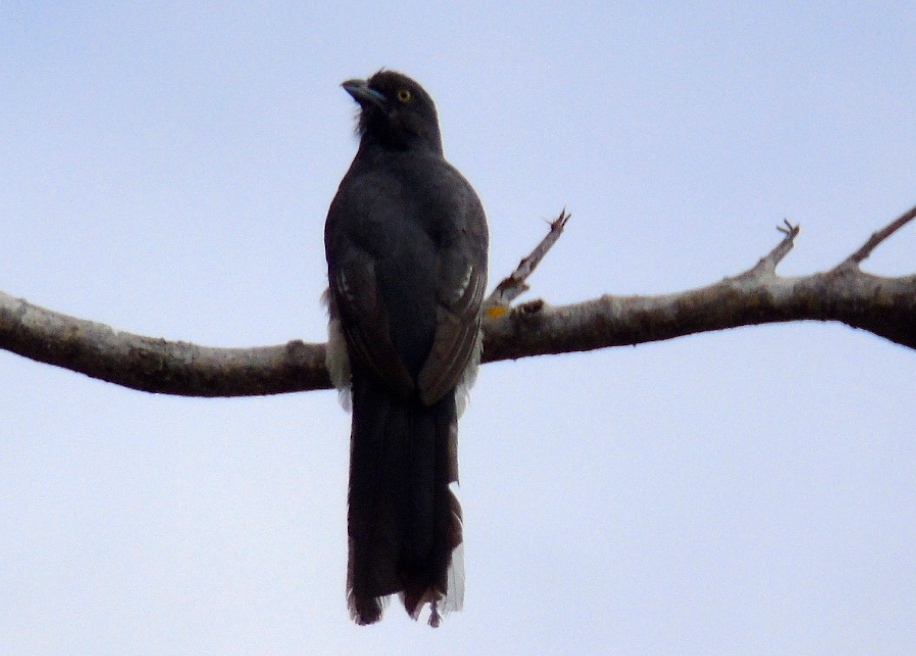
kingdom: Animalia
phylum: Chordata
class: Aves
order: Trogoniformes
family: Trogonidae
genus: Trogon
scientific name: Trogon citreolus
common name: Citreoline trogon
